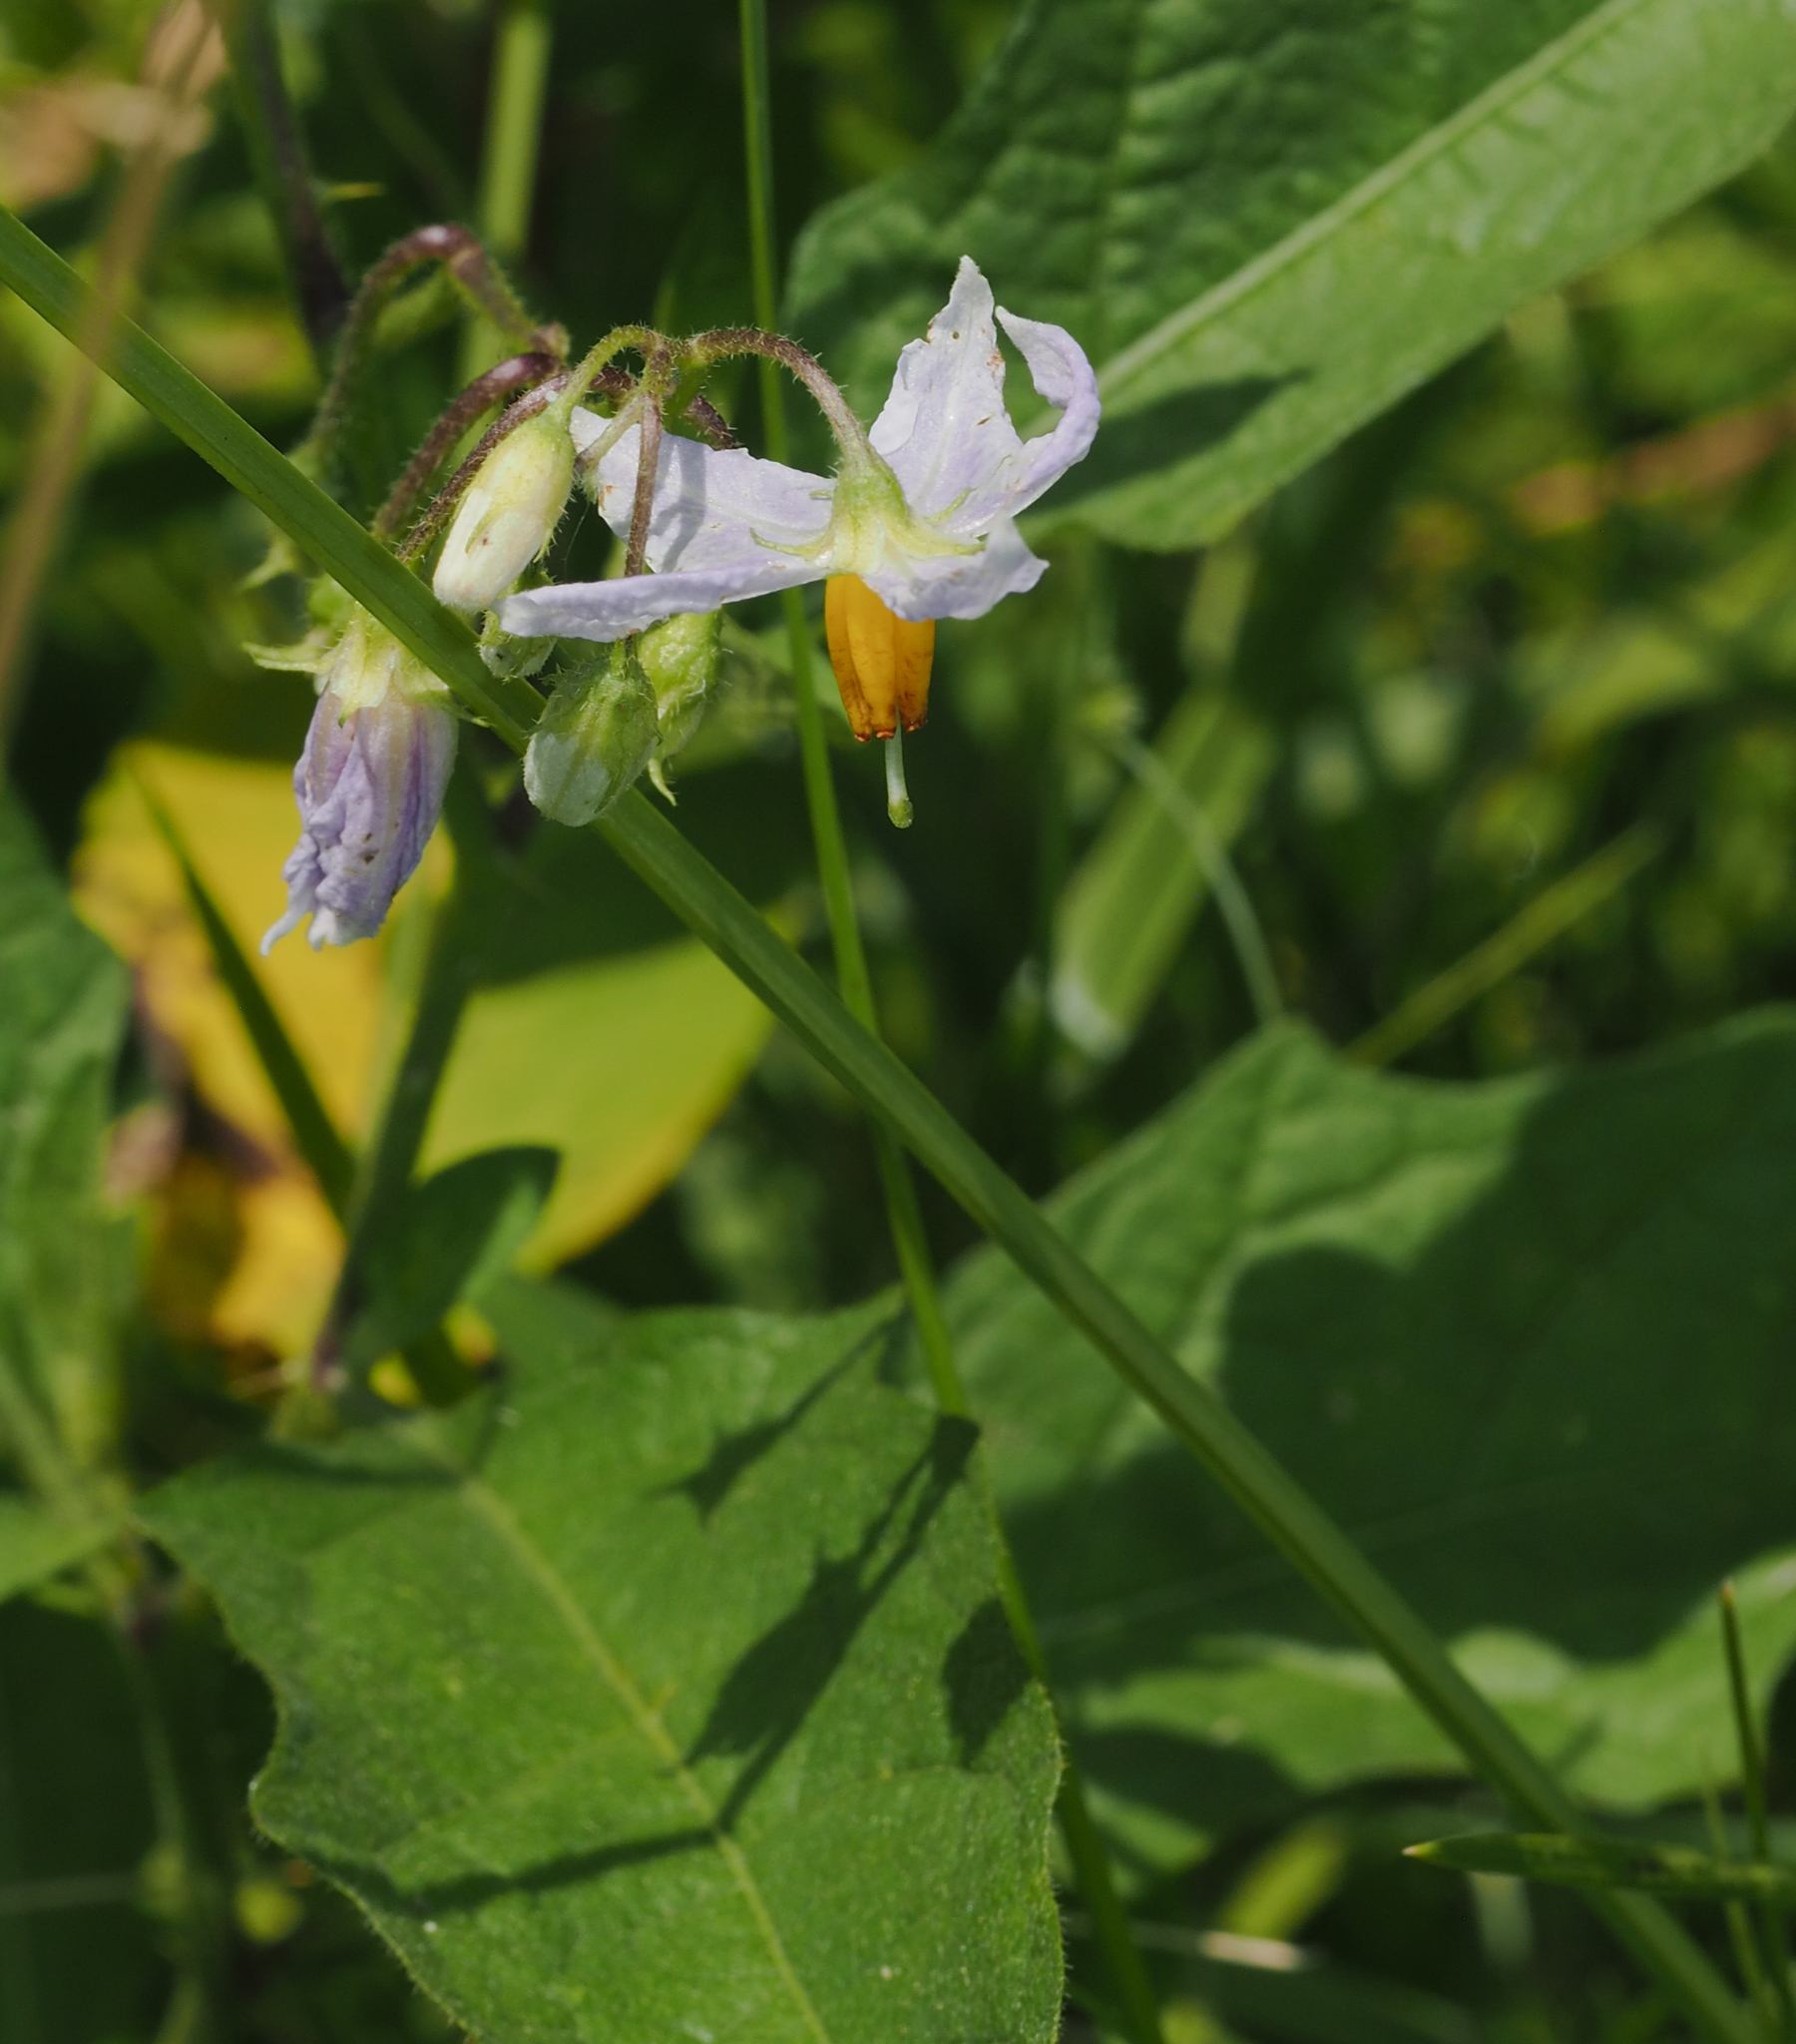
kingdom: Plantae
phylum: Tracheophyta
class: Magnoliopsida
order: Solanales
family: Solanaceae
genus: Solanum
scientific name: Solanum carolinense
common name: Horse-nettle
